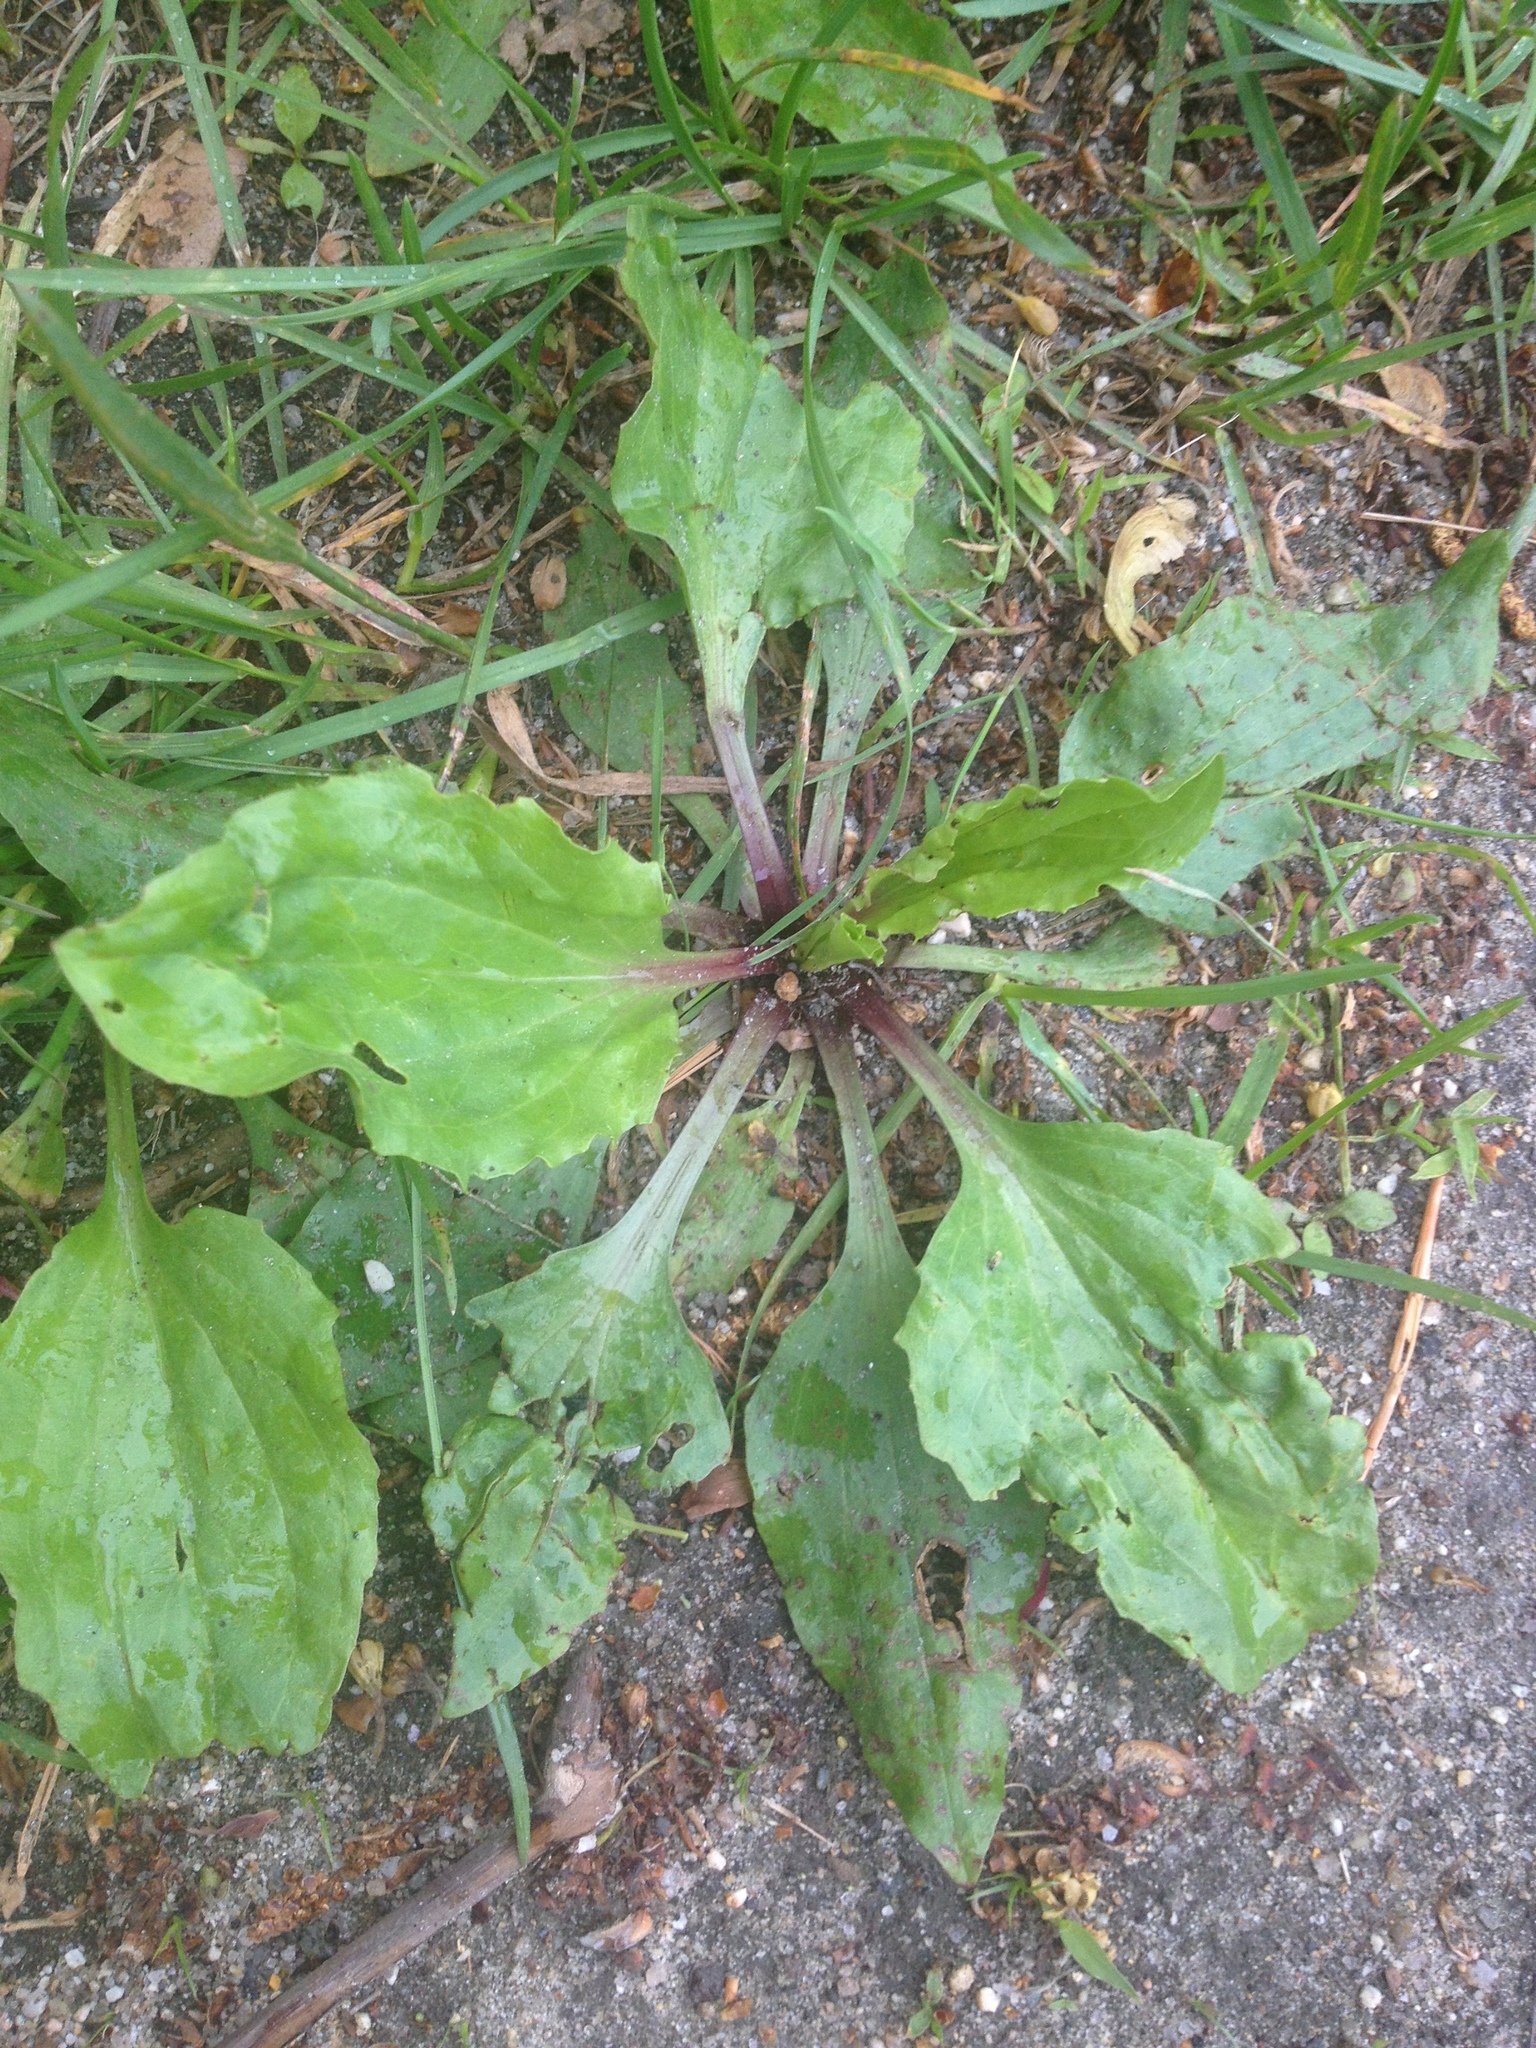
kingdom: Plantae
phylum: Tracheophyta
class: Magnoliopsida
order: Lamiales
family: Plantaginaceae
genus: Plantago
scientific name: Plantago rugelii
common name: American plantain
